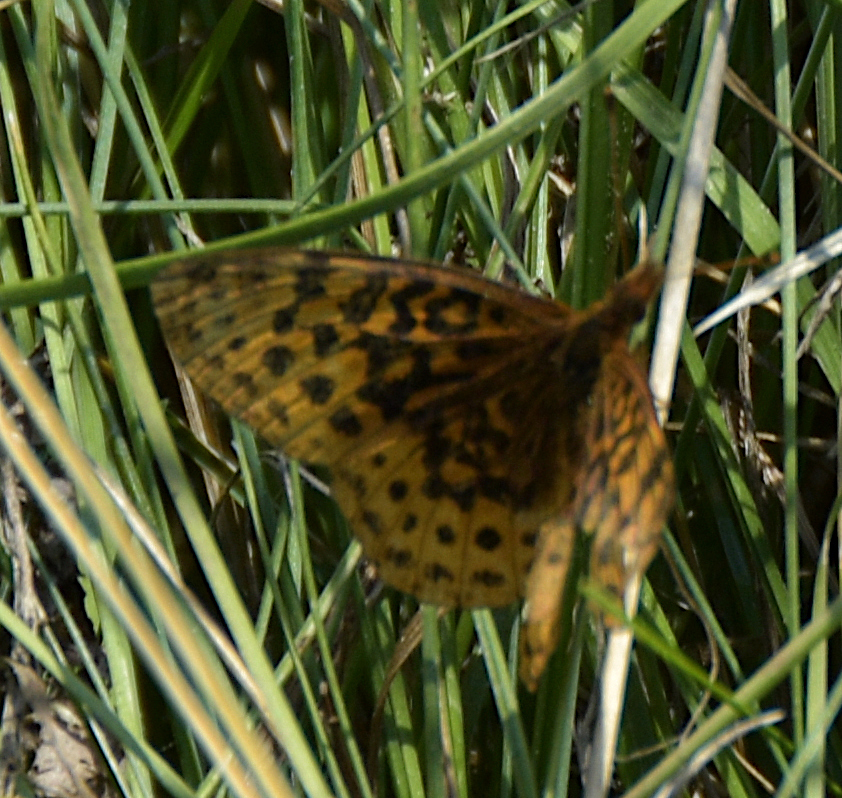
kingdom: Animalia
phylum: Arthropoda
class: Insecta
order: Lepidoptera
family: Nymphalidae
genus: Clossiana
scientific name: Clossiana toddi
